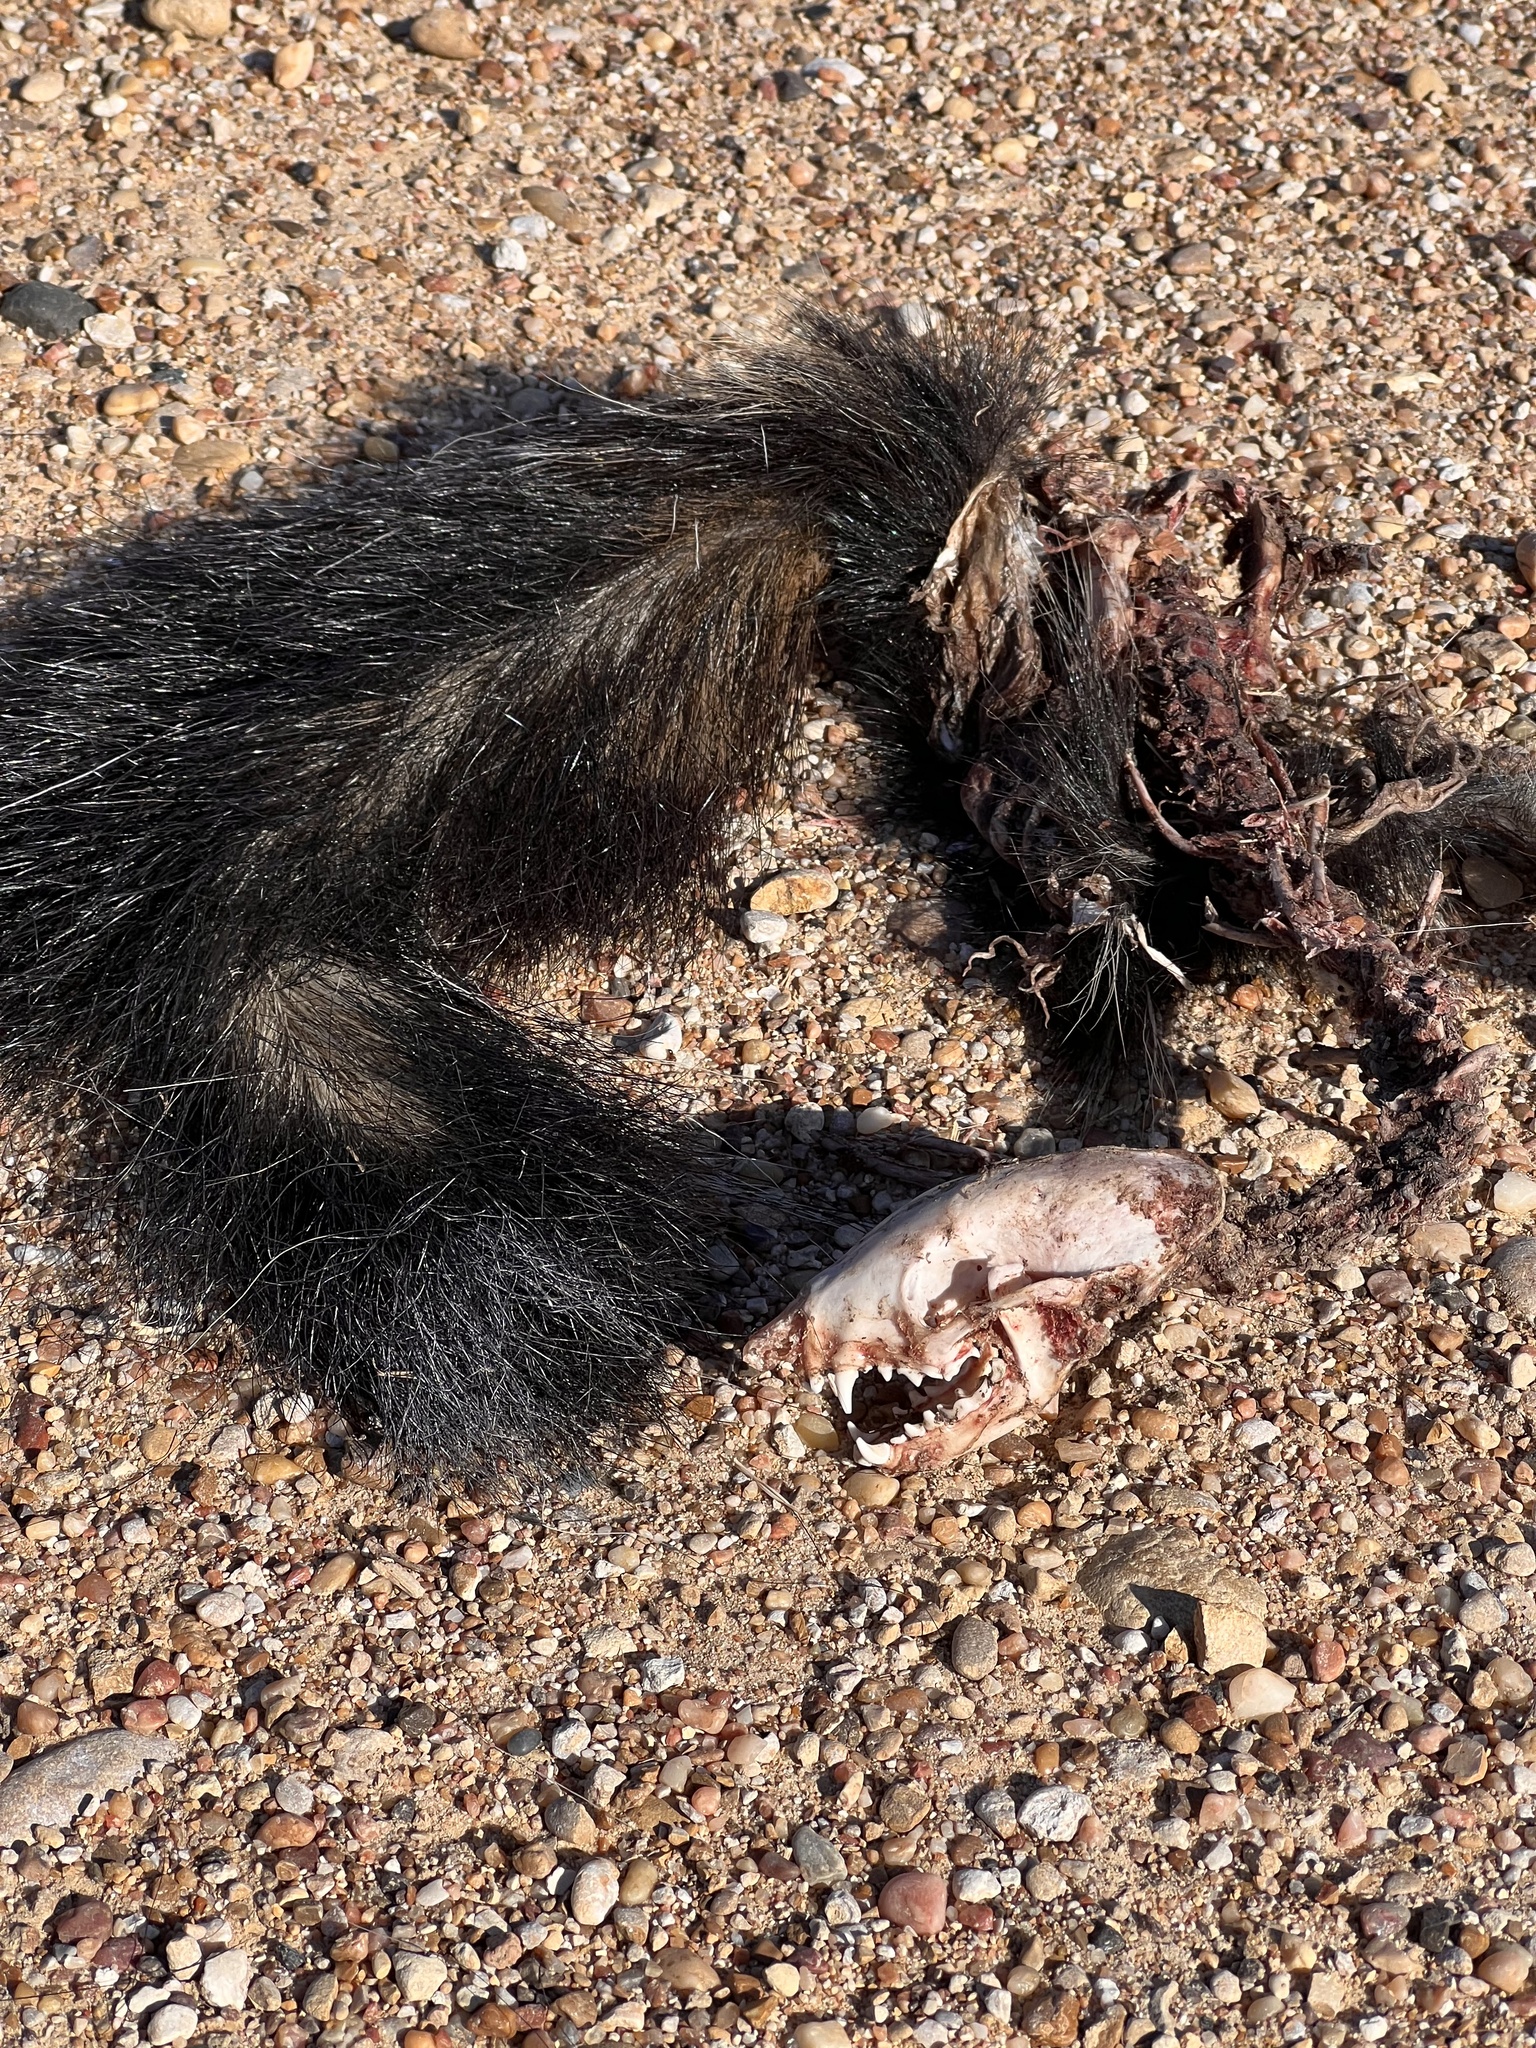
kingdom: Animalia
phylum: Chordata
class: Mammalia
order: Carnivora
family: Mephitidae
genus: Mephitis
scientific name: Mephitis mephitis
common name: Striped skunk
